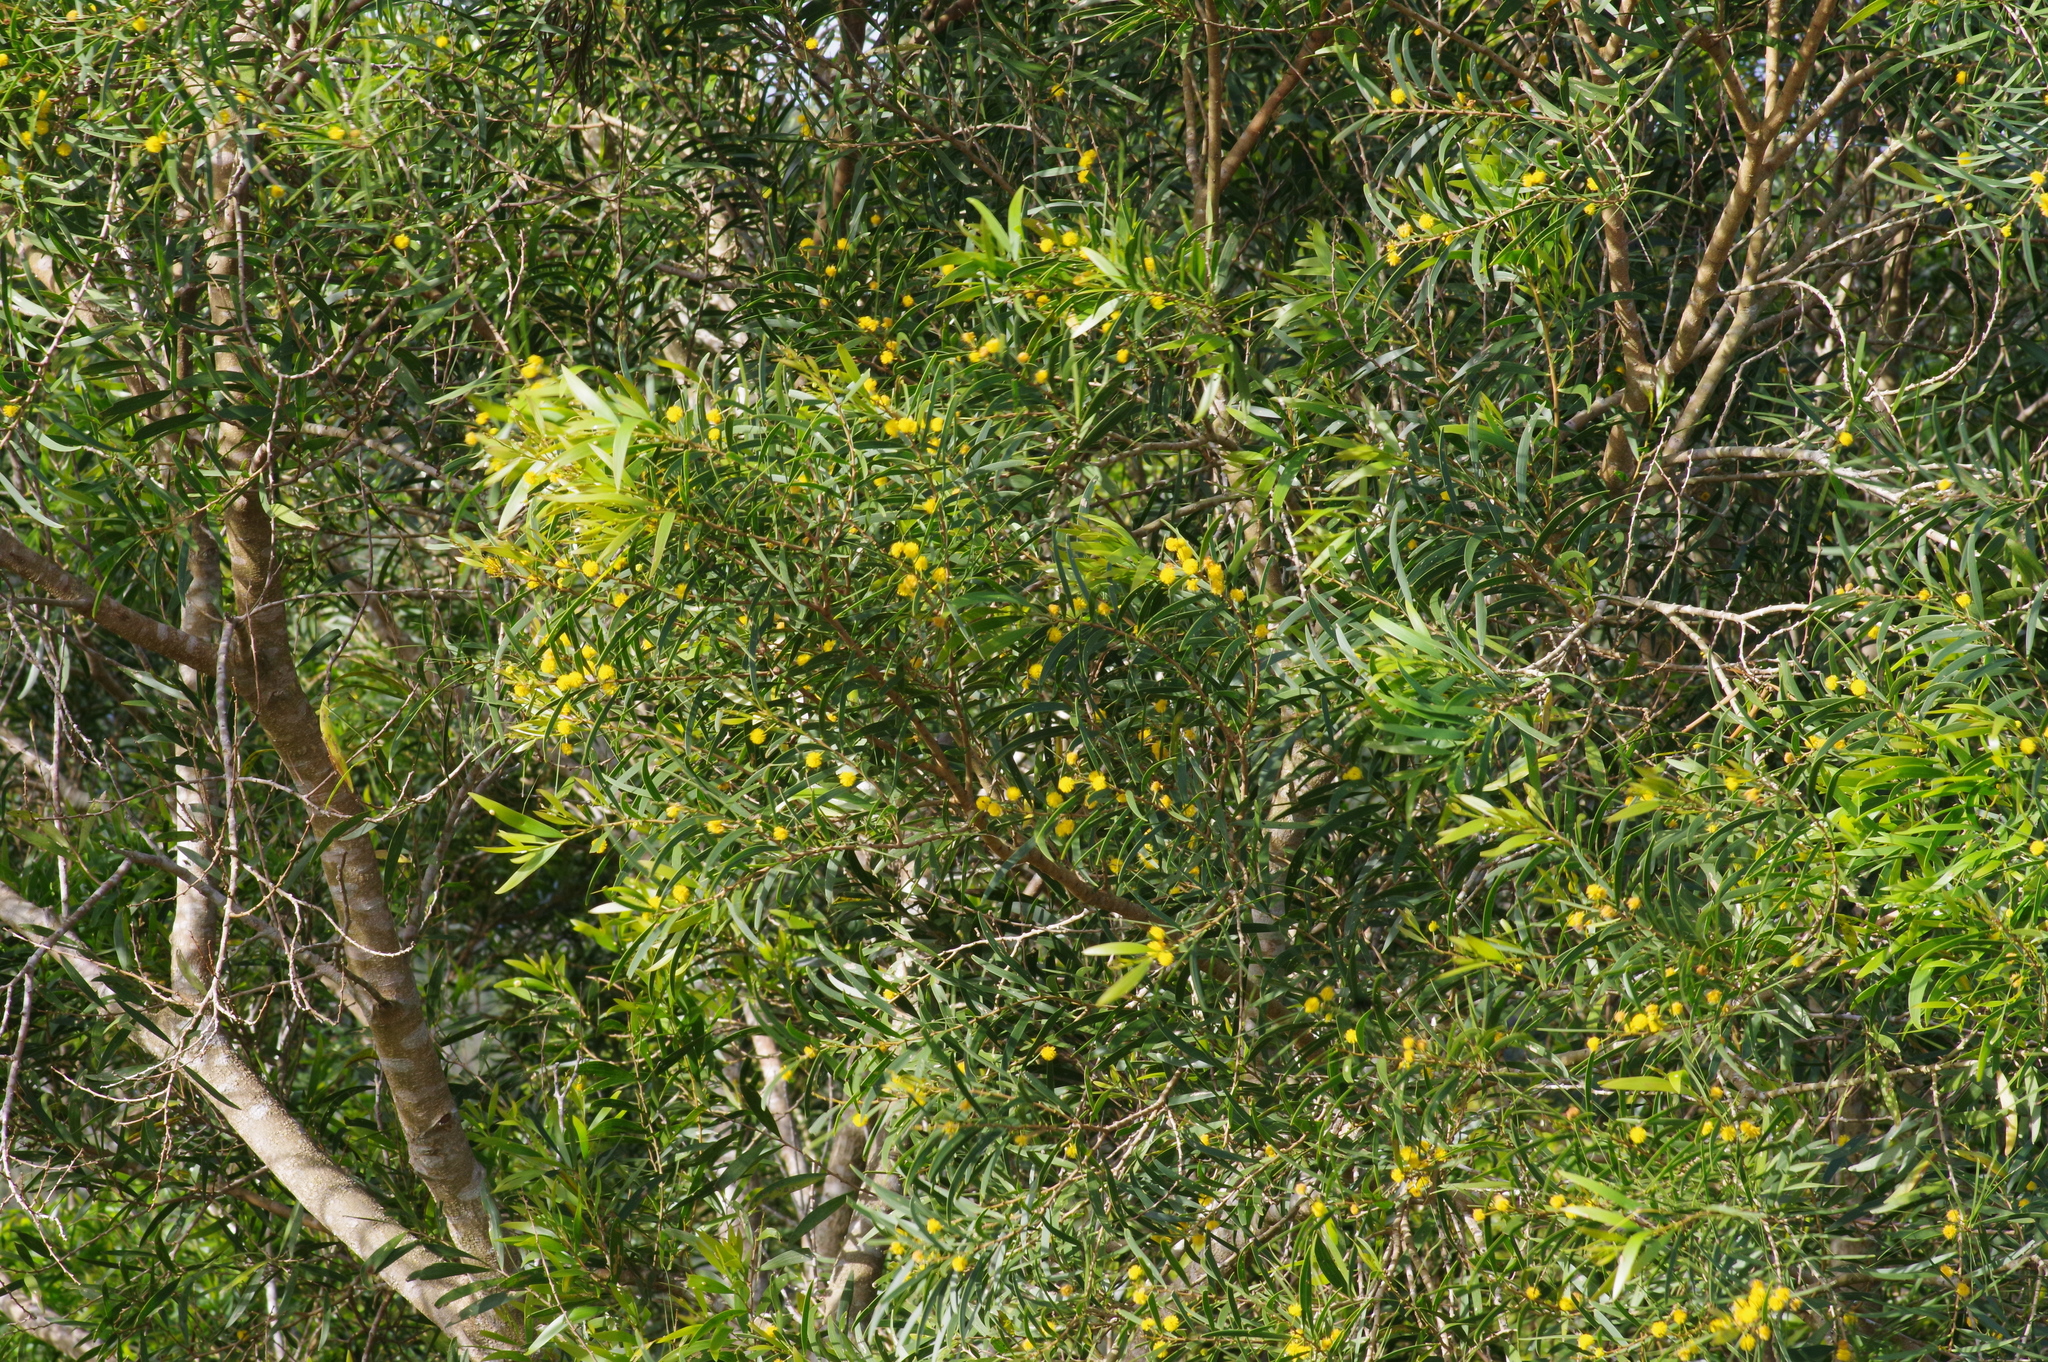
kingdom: Plantae
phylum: Tracheophyta
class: Magnoliopsida
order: Fabales
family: Fabaceae
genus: Acacia
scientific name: Acacia confusa
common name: Formosan koa
